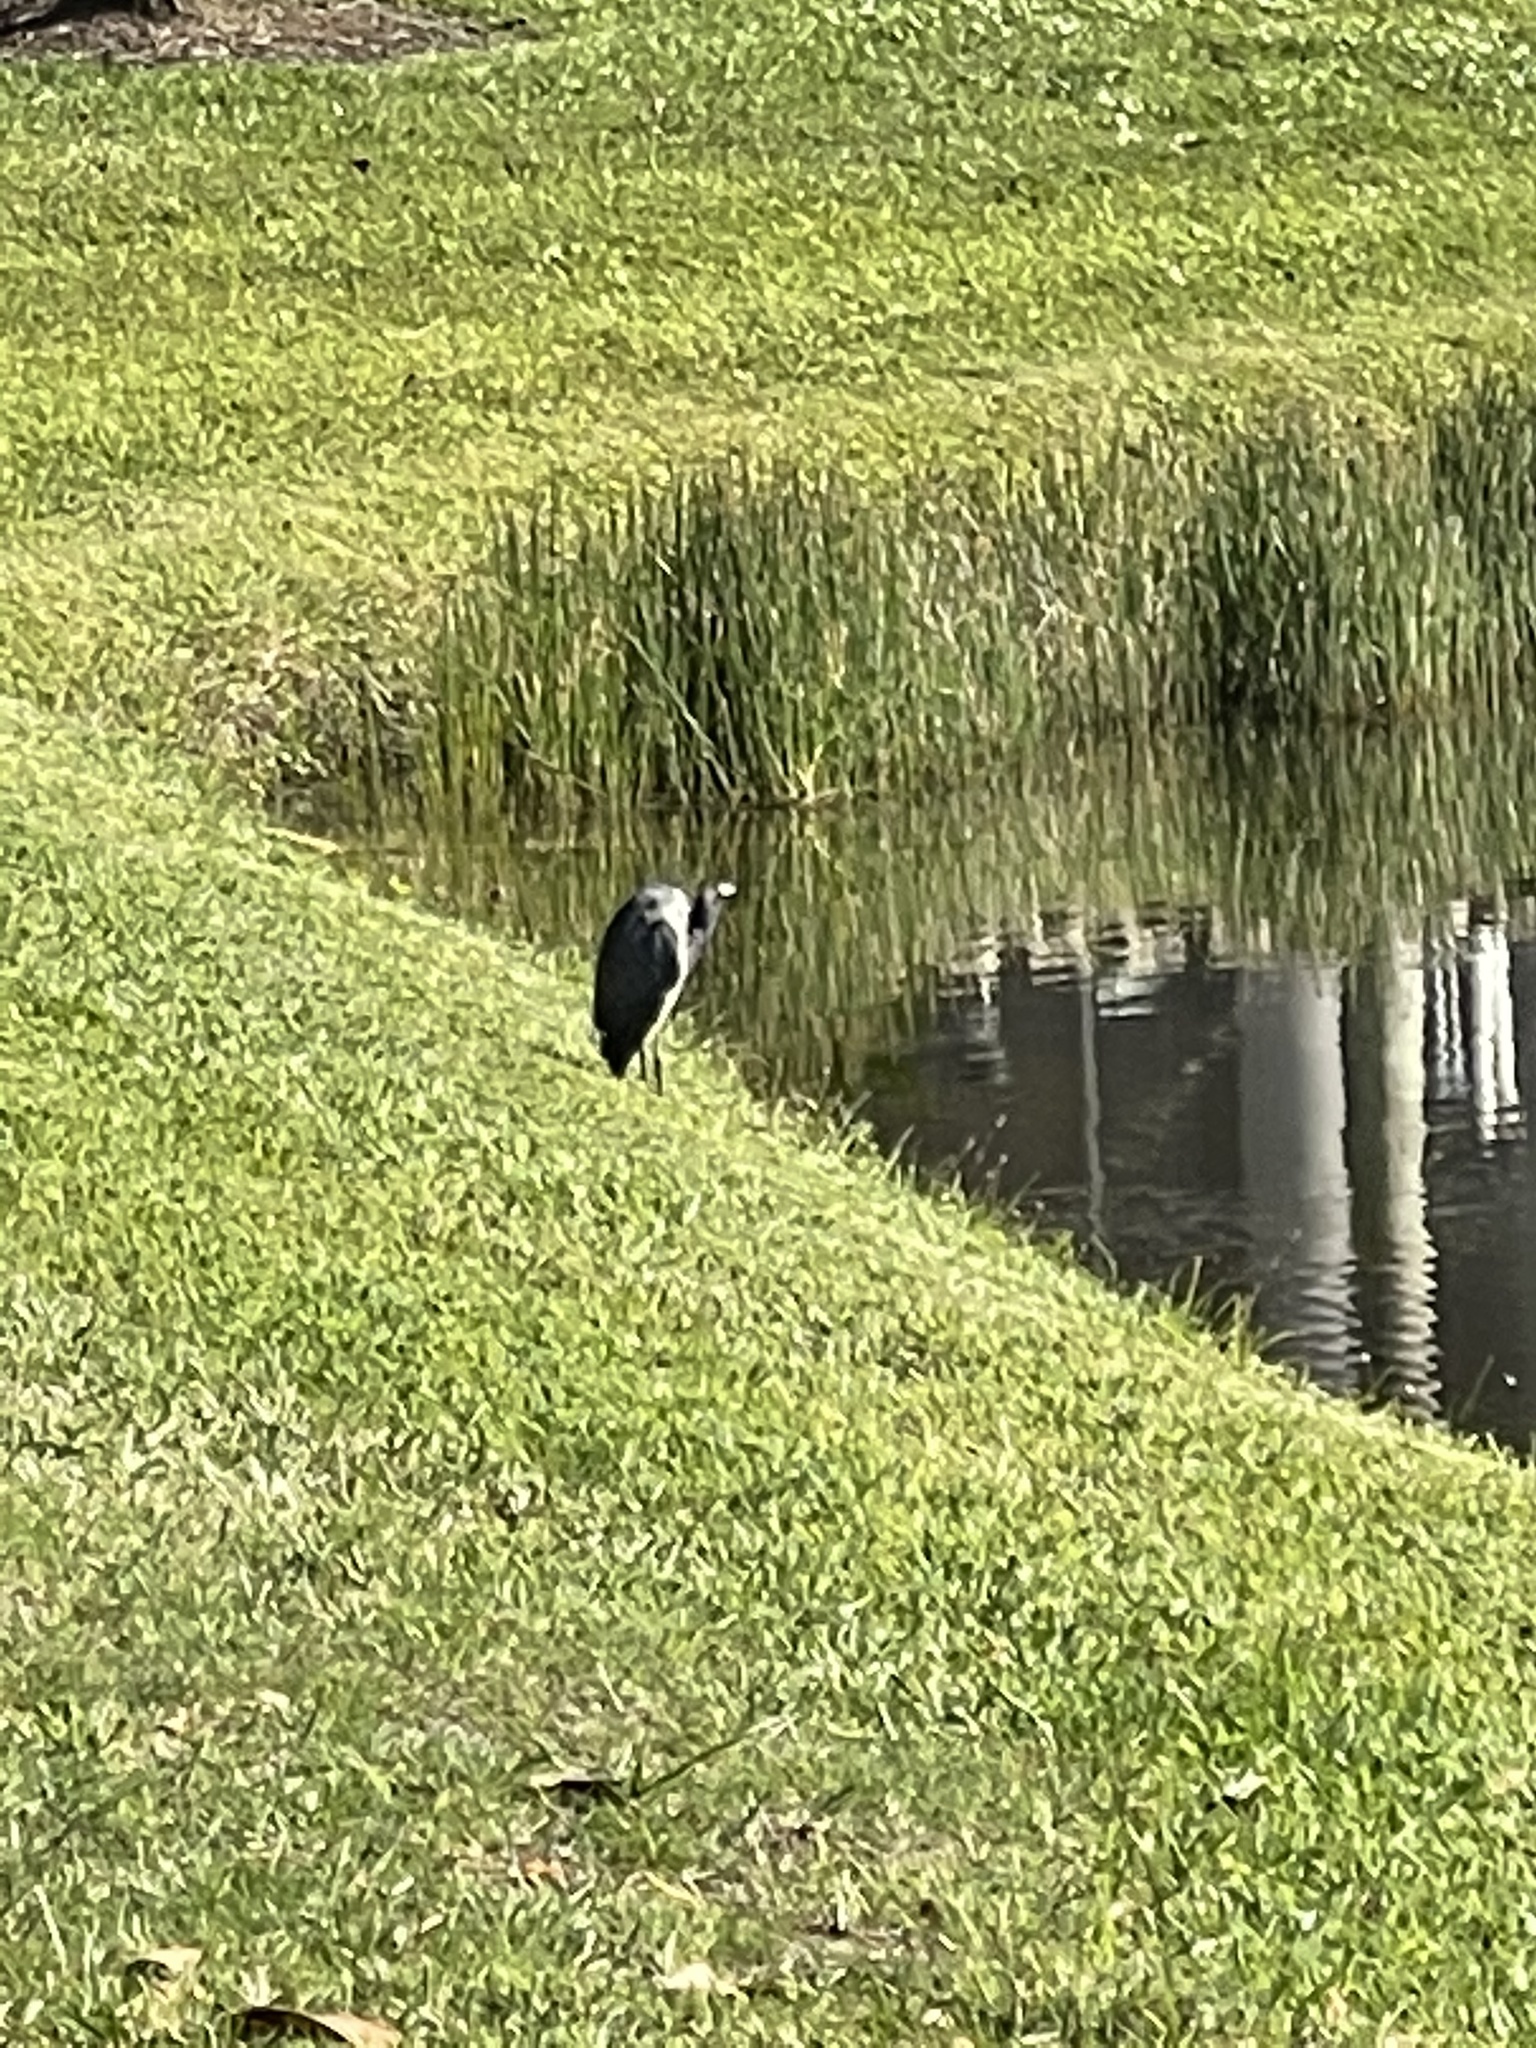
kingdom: Animalia
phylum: Chordata
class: Aves
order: Pelecaniformes
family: Ardeidae
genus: Egretta
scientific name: Egretta tricolor
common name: Tricolored heron
